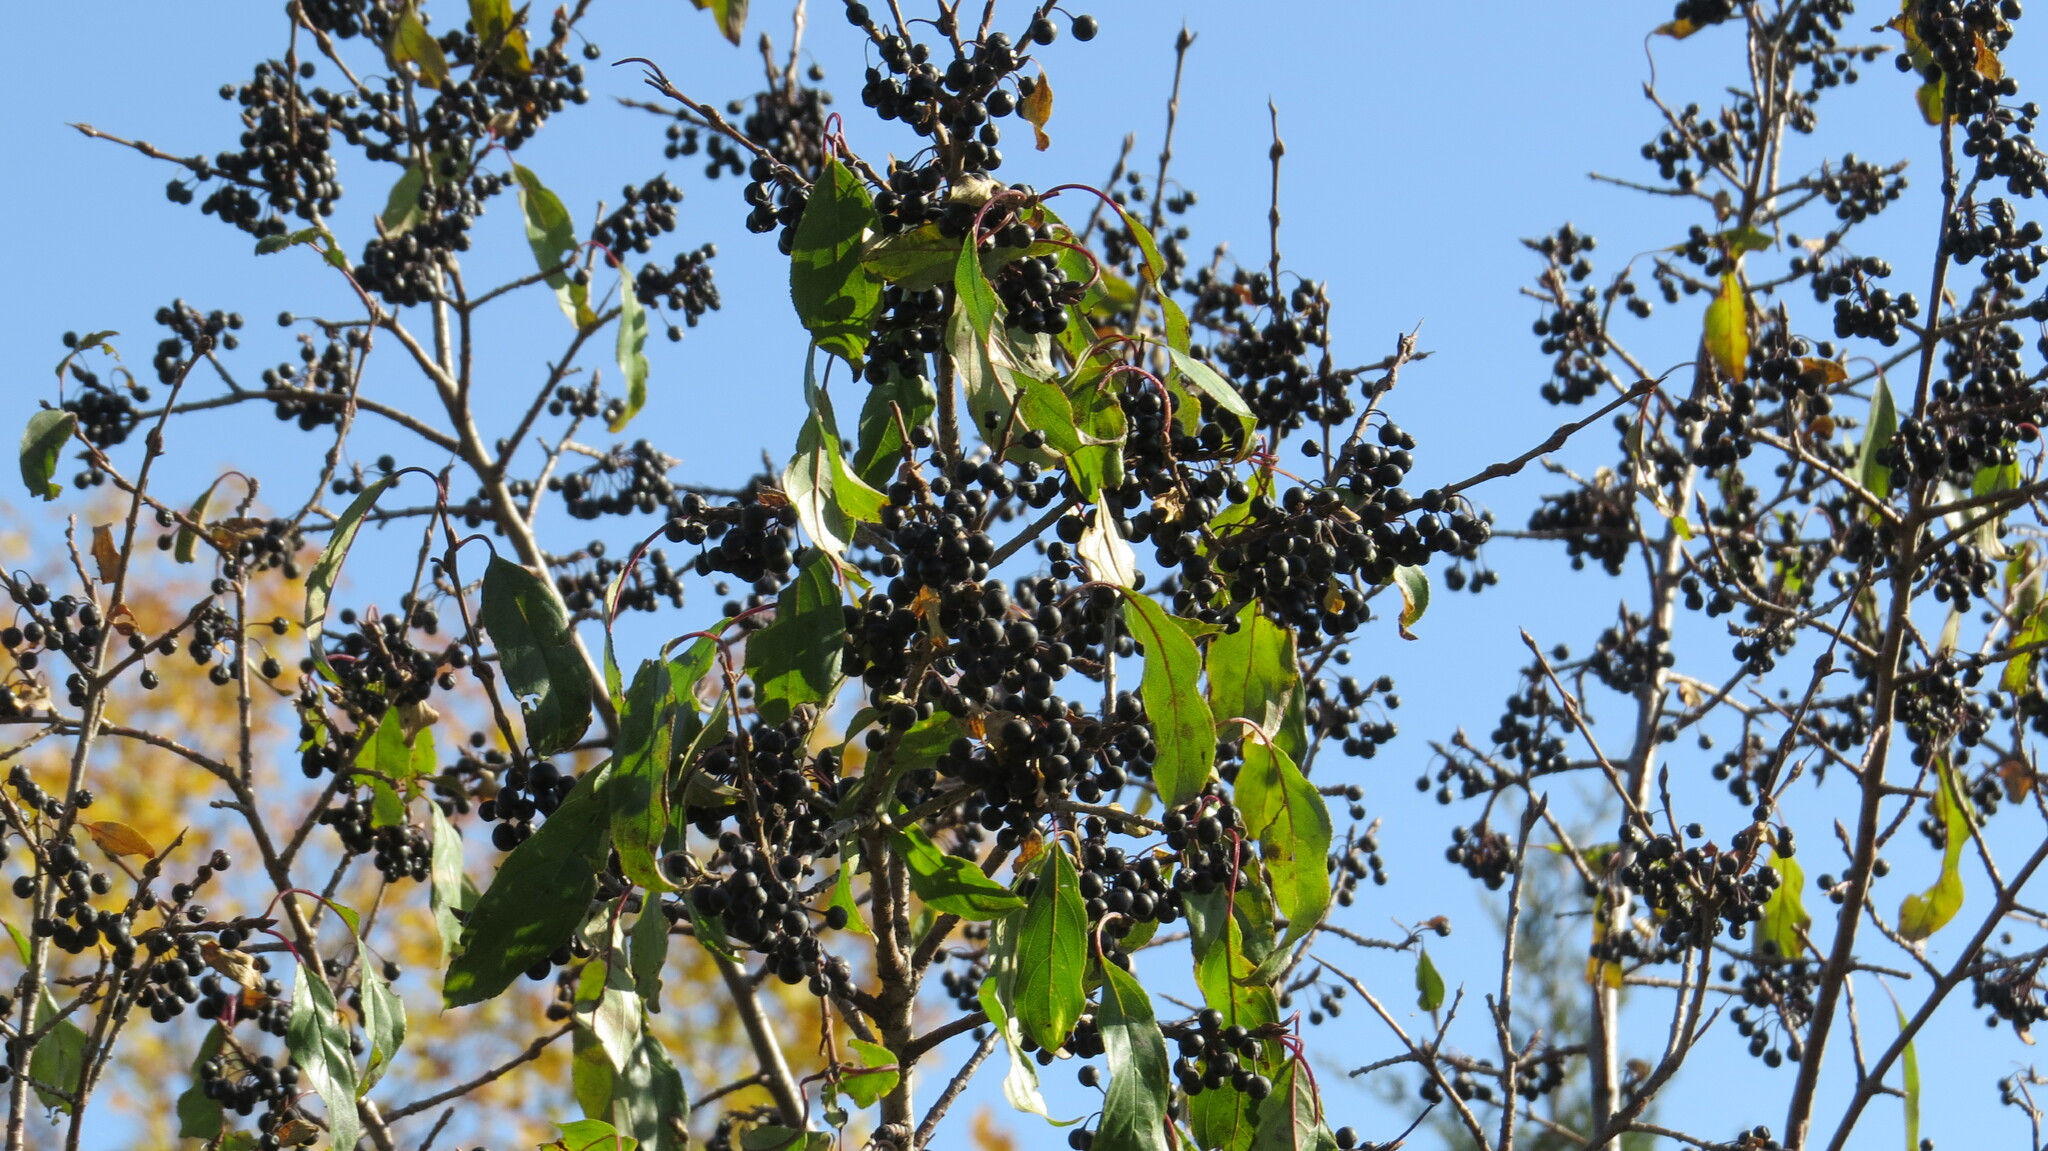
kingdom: Plantae
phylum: Tracheophyta
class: Magnoliopsida
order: Rosales
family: Rhamnaceae
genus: Rhamnus
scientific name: Rhamnus virgata
